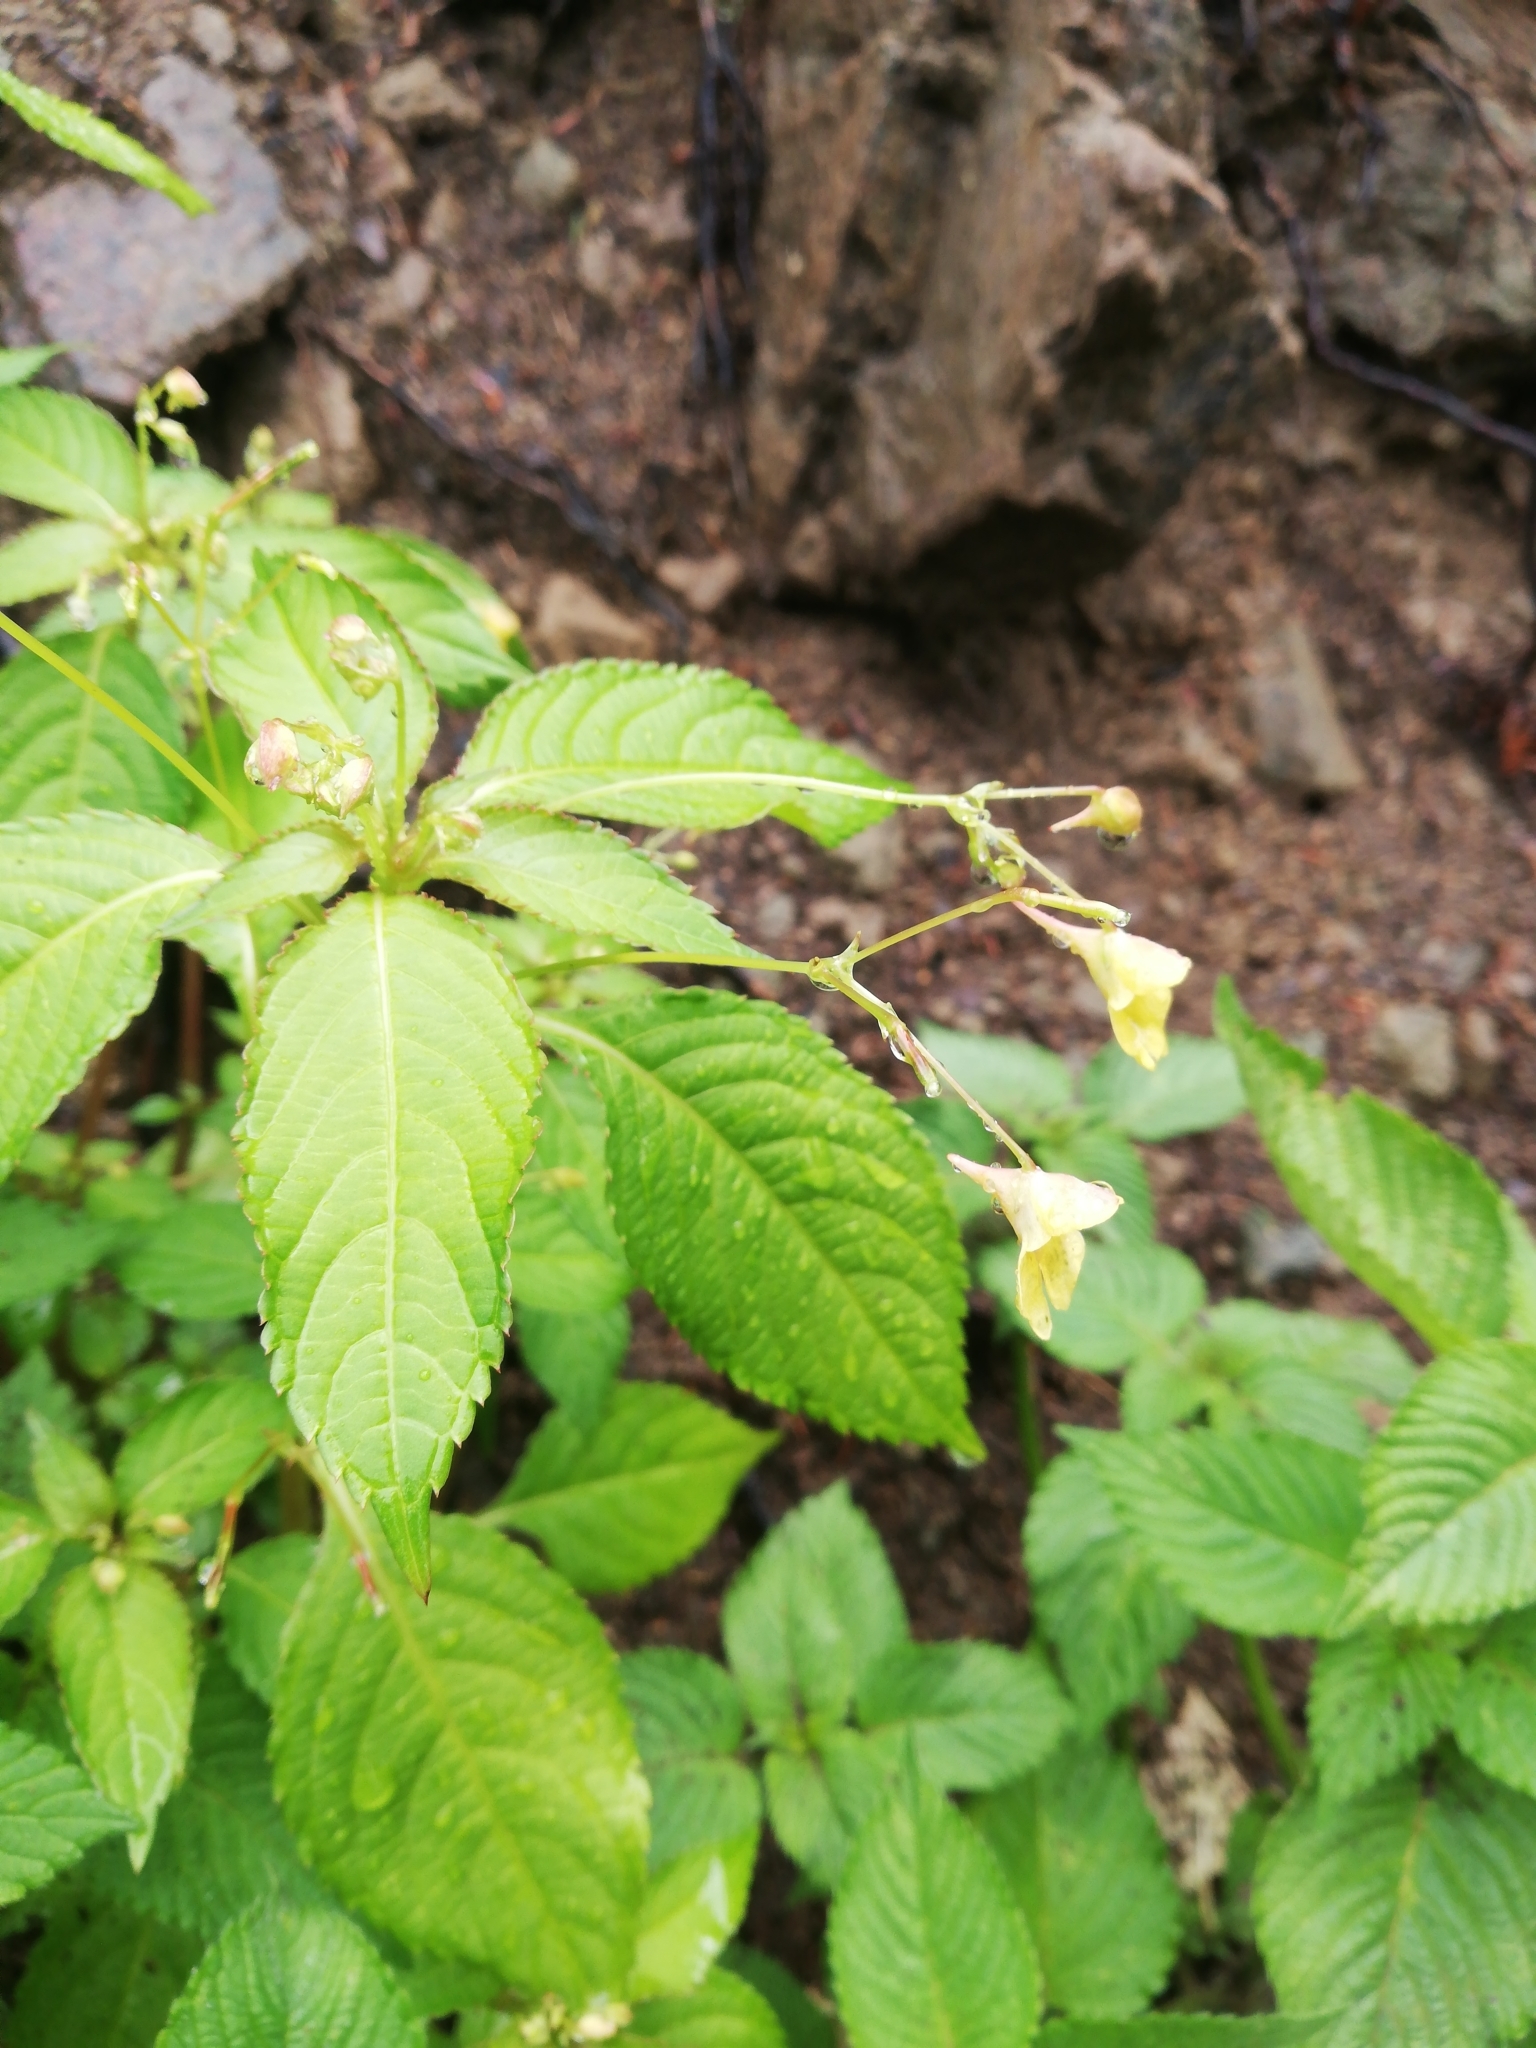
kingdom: Plantae
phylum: Tracheophyta
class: Magnoliopsida
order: Ericales
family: Balsaminaceae
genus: Impatiens
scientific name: Impatiens parviflora
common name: Small balsam
